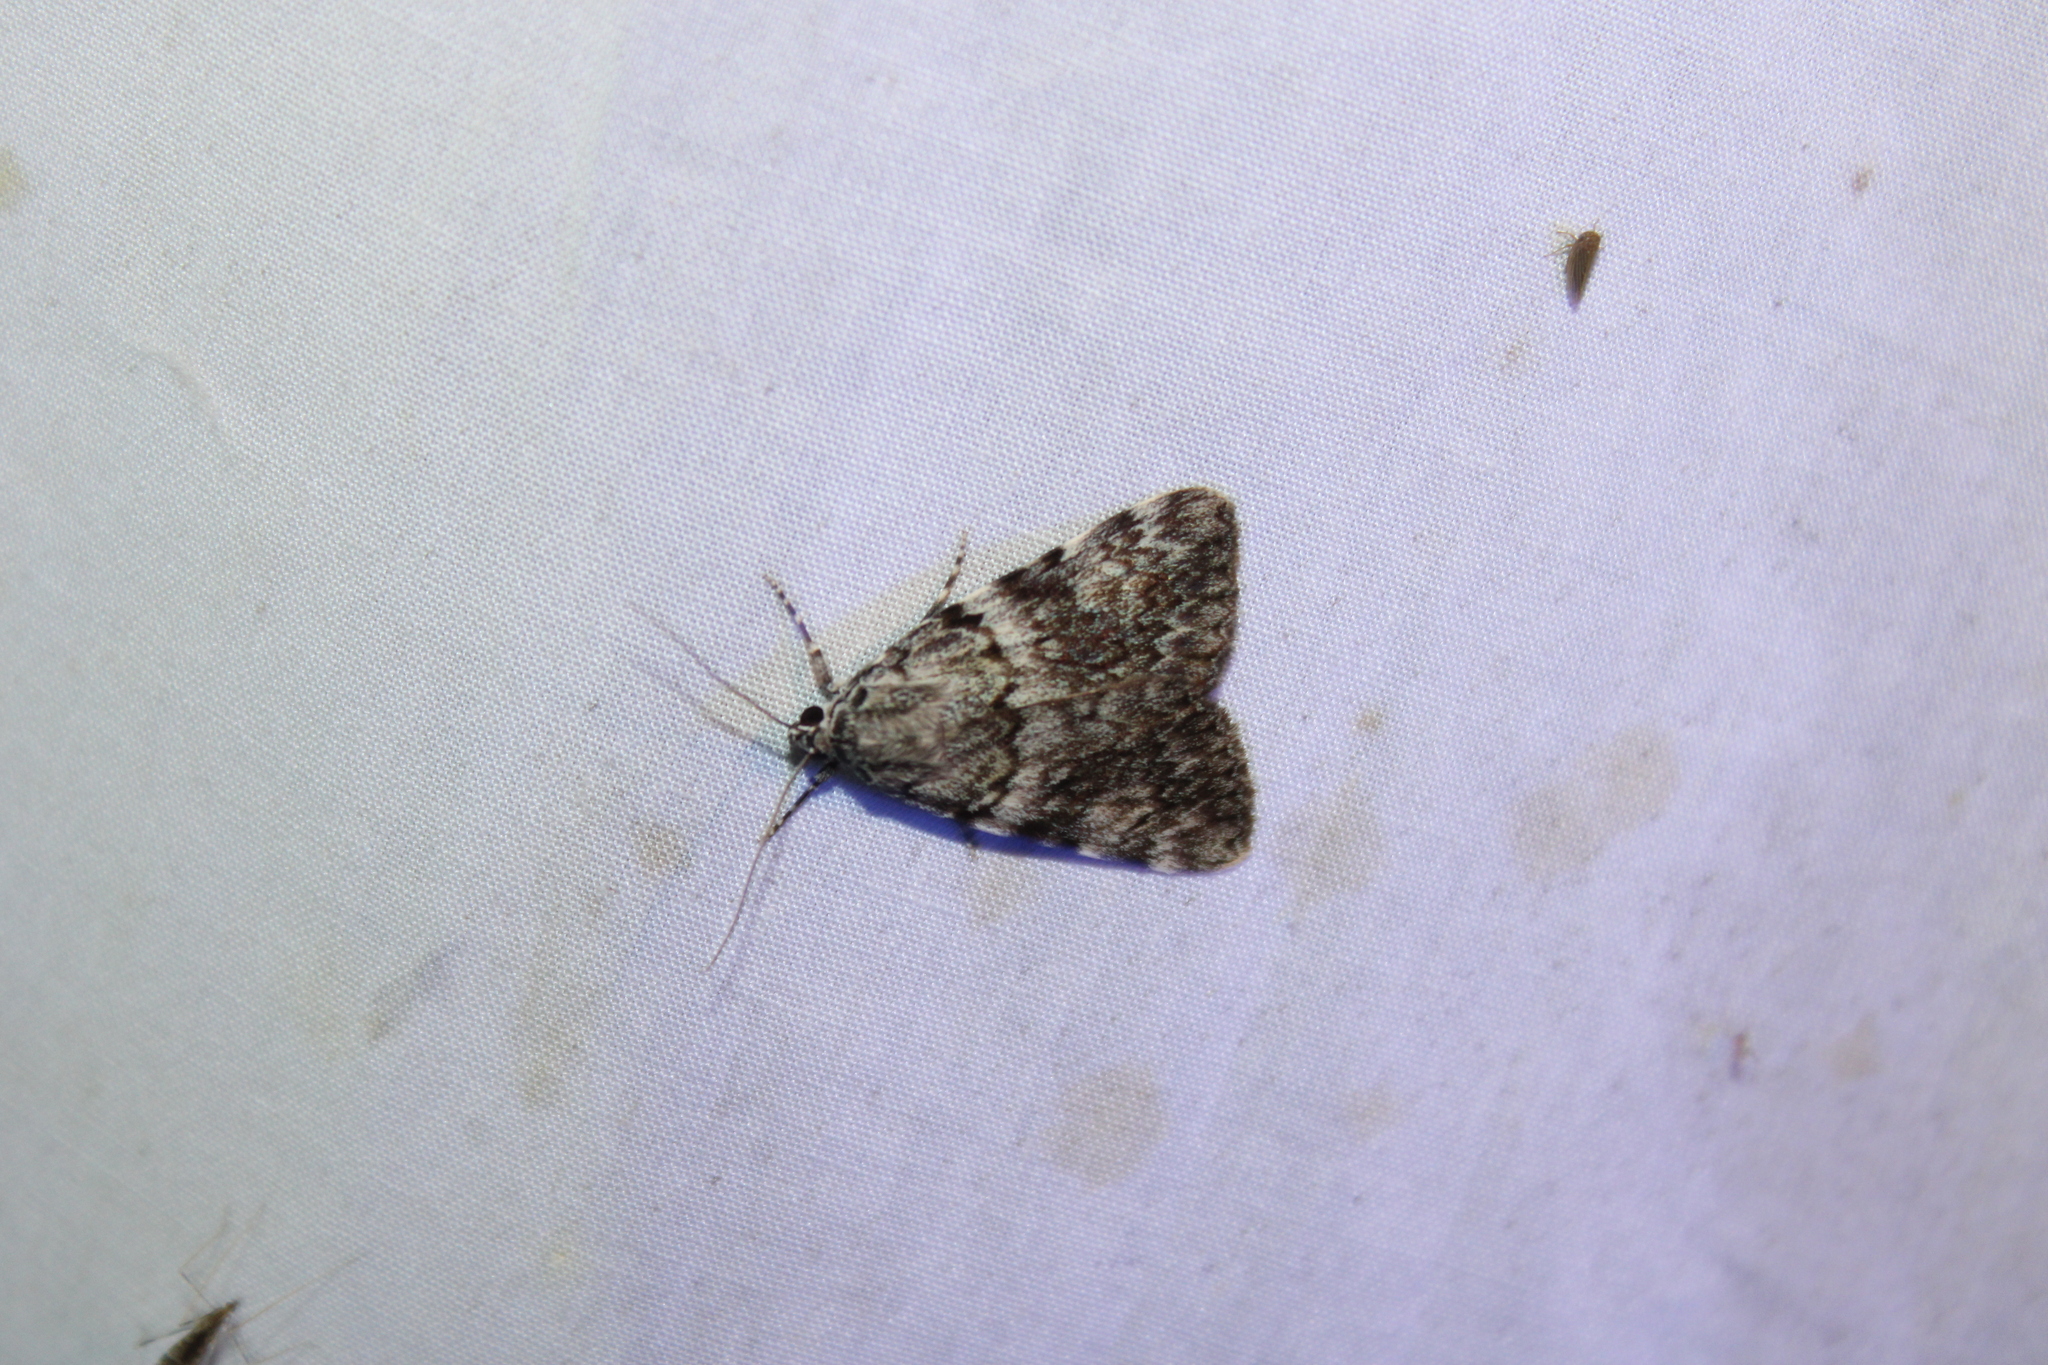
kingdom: Animalia
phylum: Arthropoda
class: Insecta
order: Lepidoptera
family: Erebidae
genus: Catocala
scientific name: Catocala lineella
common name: Little lined underwing
